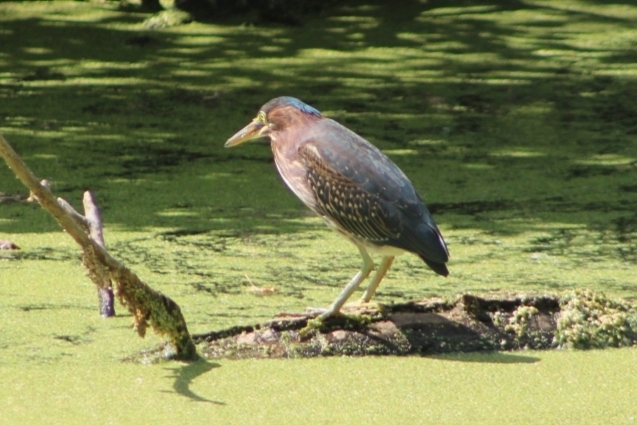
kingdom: Animalia
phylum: Chordata
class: Aves
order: Pelecaniformes
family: Ardeidae
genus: Butorides
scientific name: Butorides virescens
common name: Green heron
